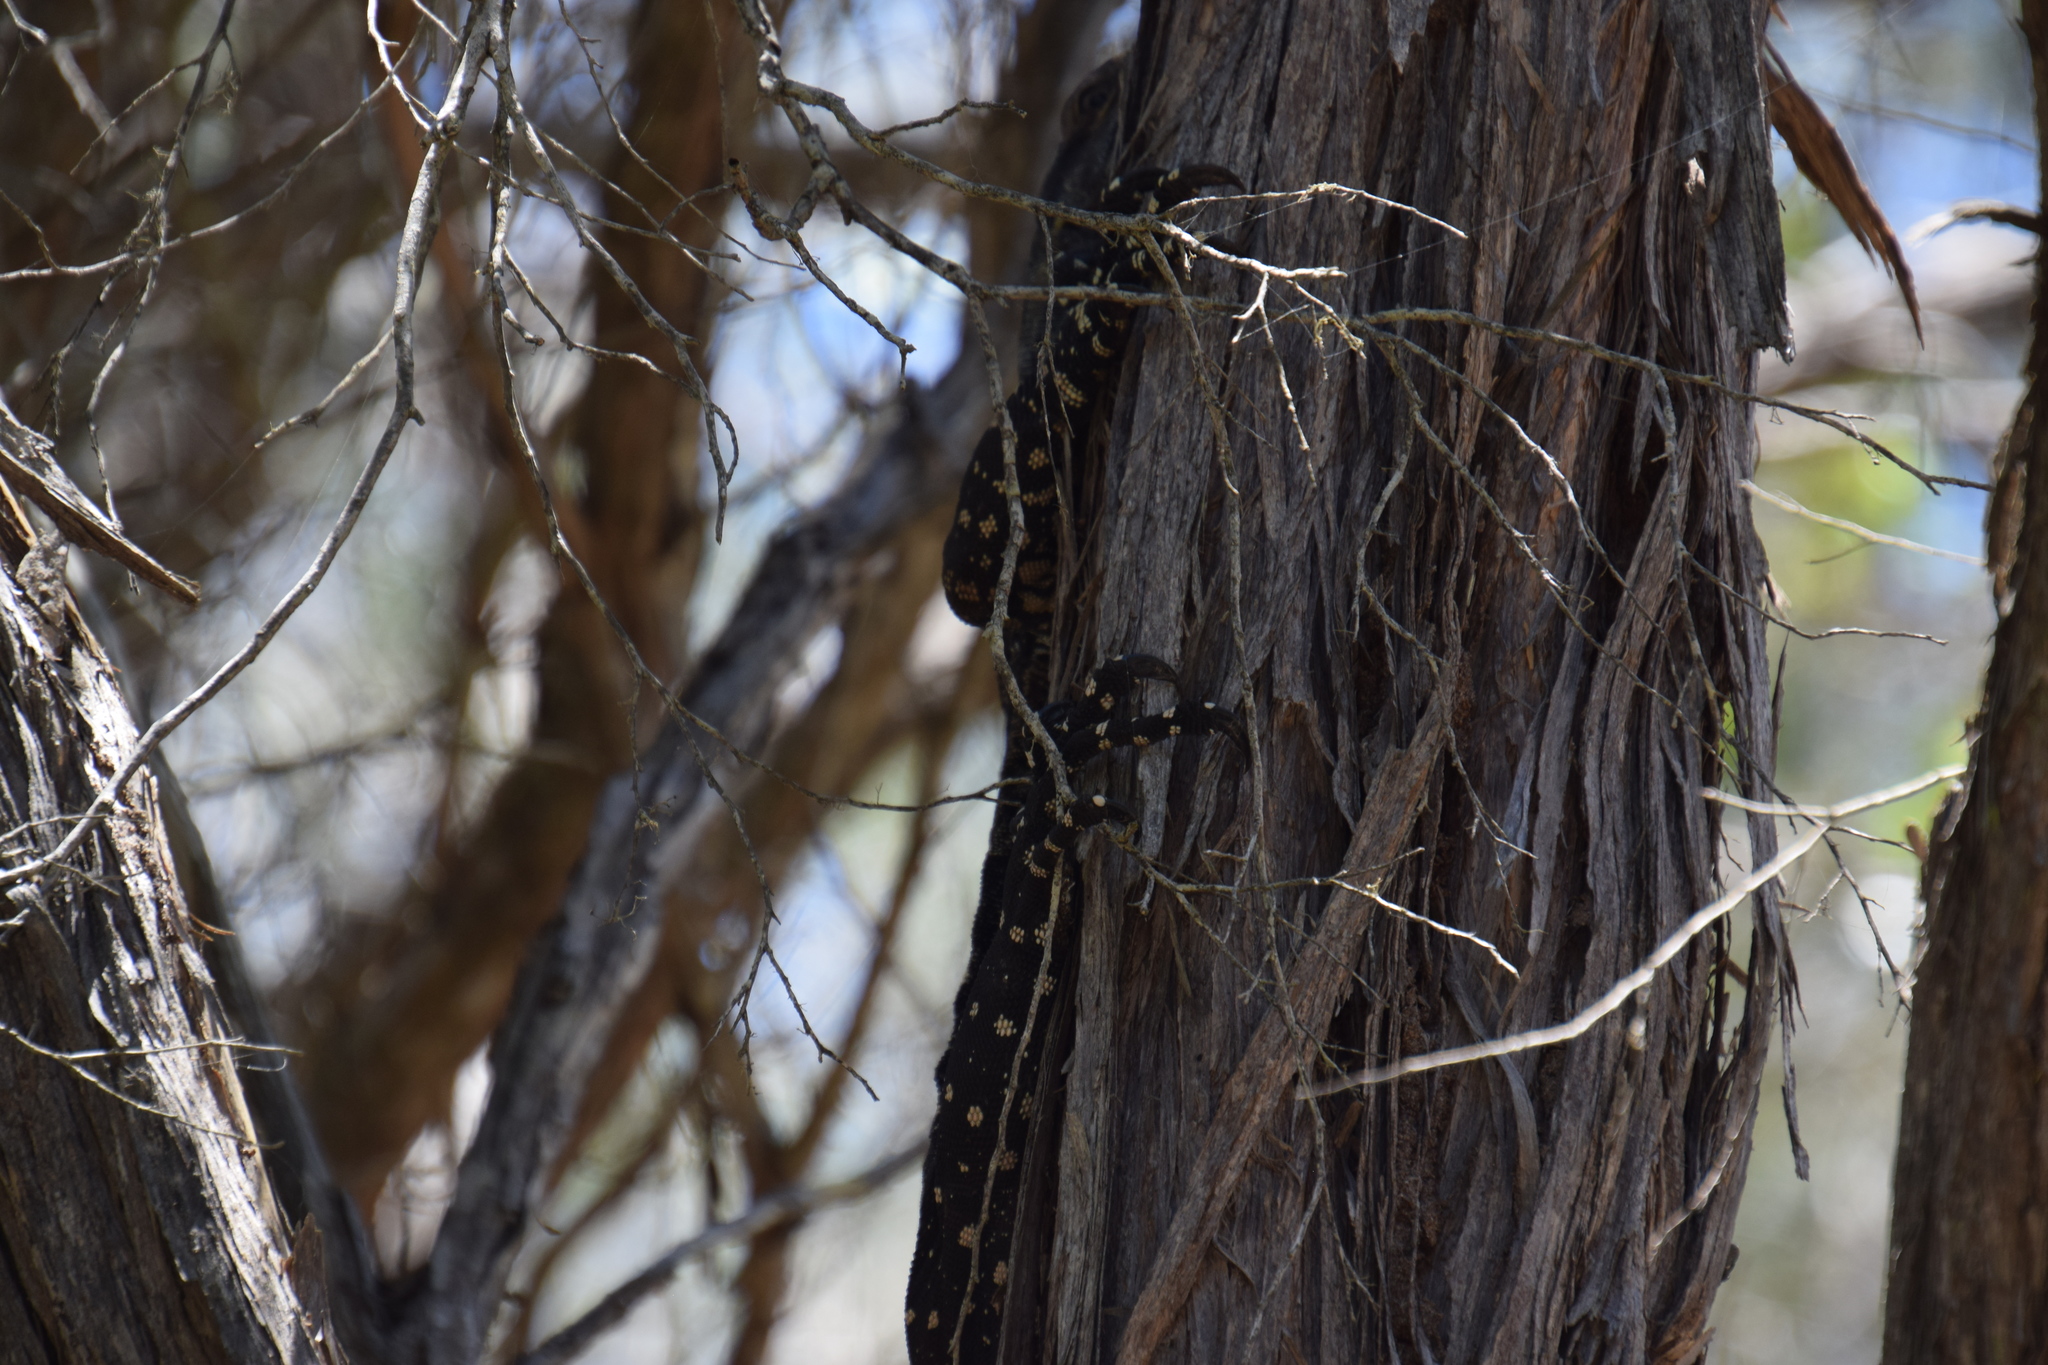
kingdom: Animalia
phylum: Chordata
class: Squamata
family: Varanidae
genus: Varanus
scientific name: Varanus varius
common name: Lace monitor
